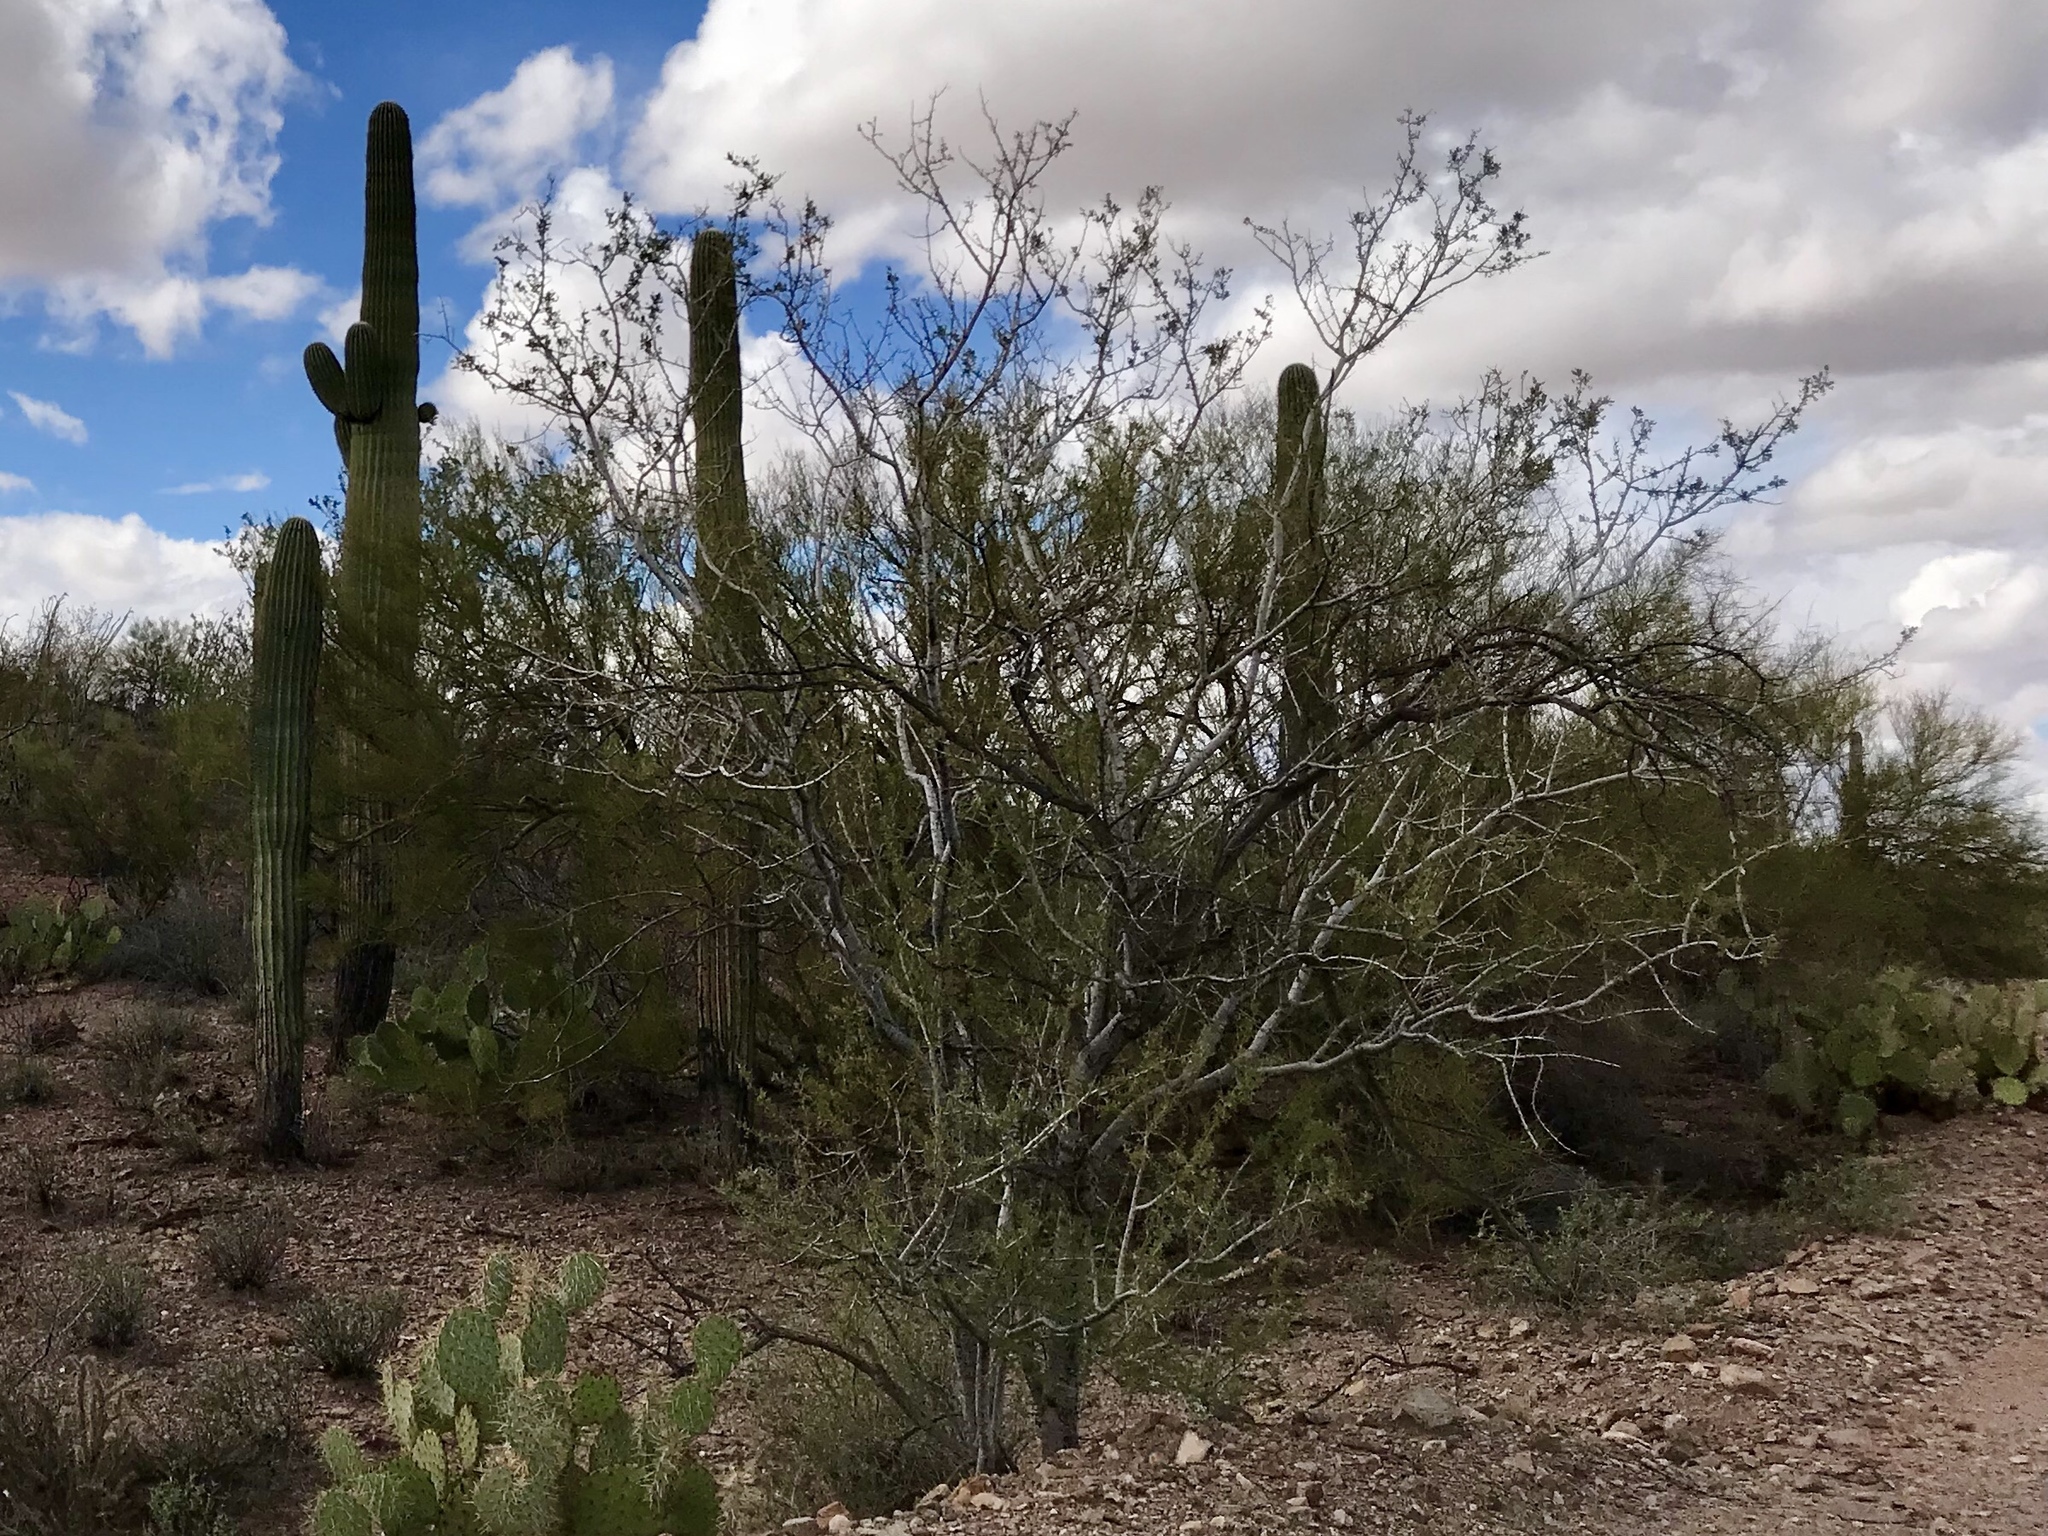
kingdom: Plantae
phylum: Tracheophyta
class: Magnoliopsida
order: Fabales
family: Fabaceae
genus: Olneya
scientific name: Olneya tesota
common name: Desert ironwood
